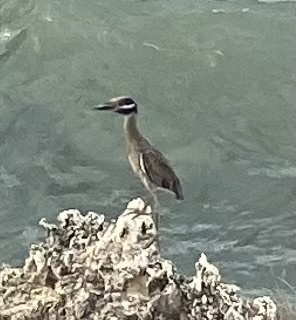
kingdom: Animalia
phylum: Chordata
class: Aves
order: Pelecaniformes
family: Ardeidae
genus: Nyctanassa
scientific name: Nyctanassa violacea
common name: Yellow-crowned night heron
